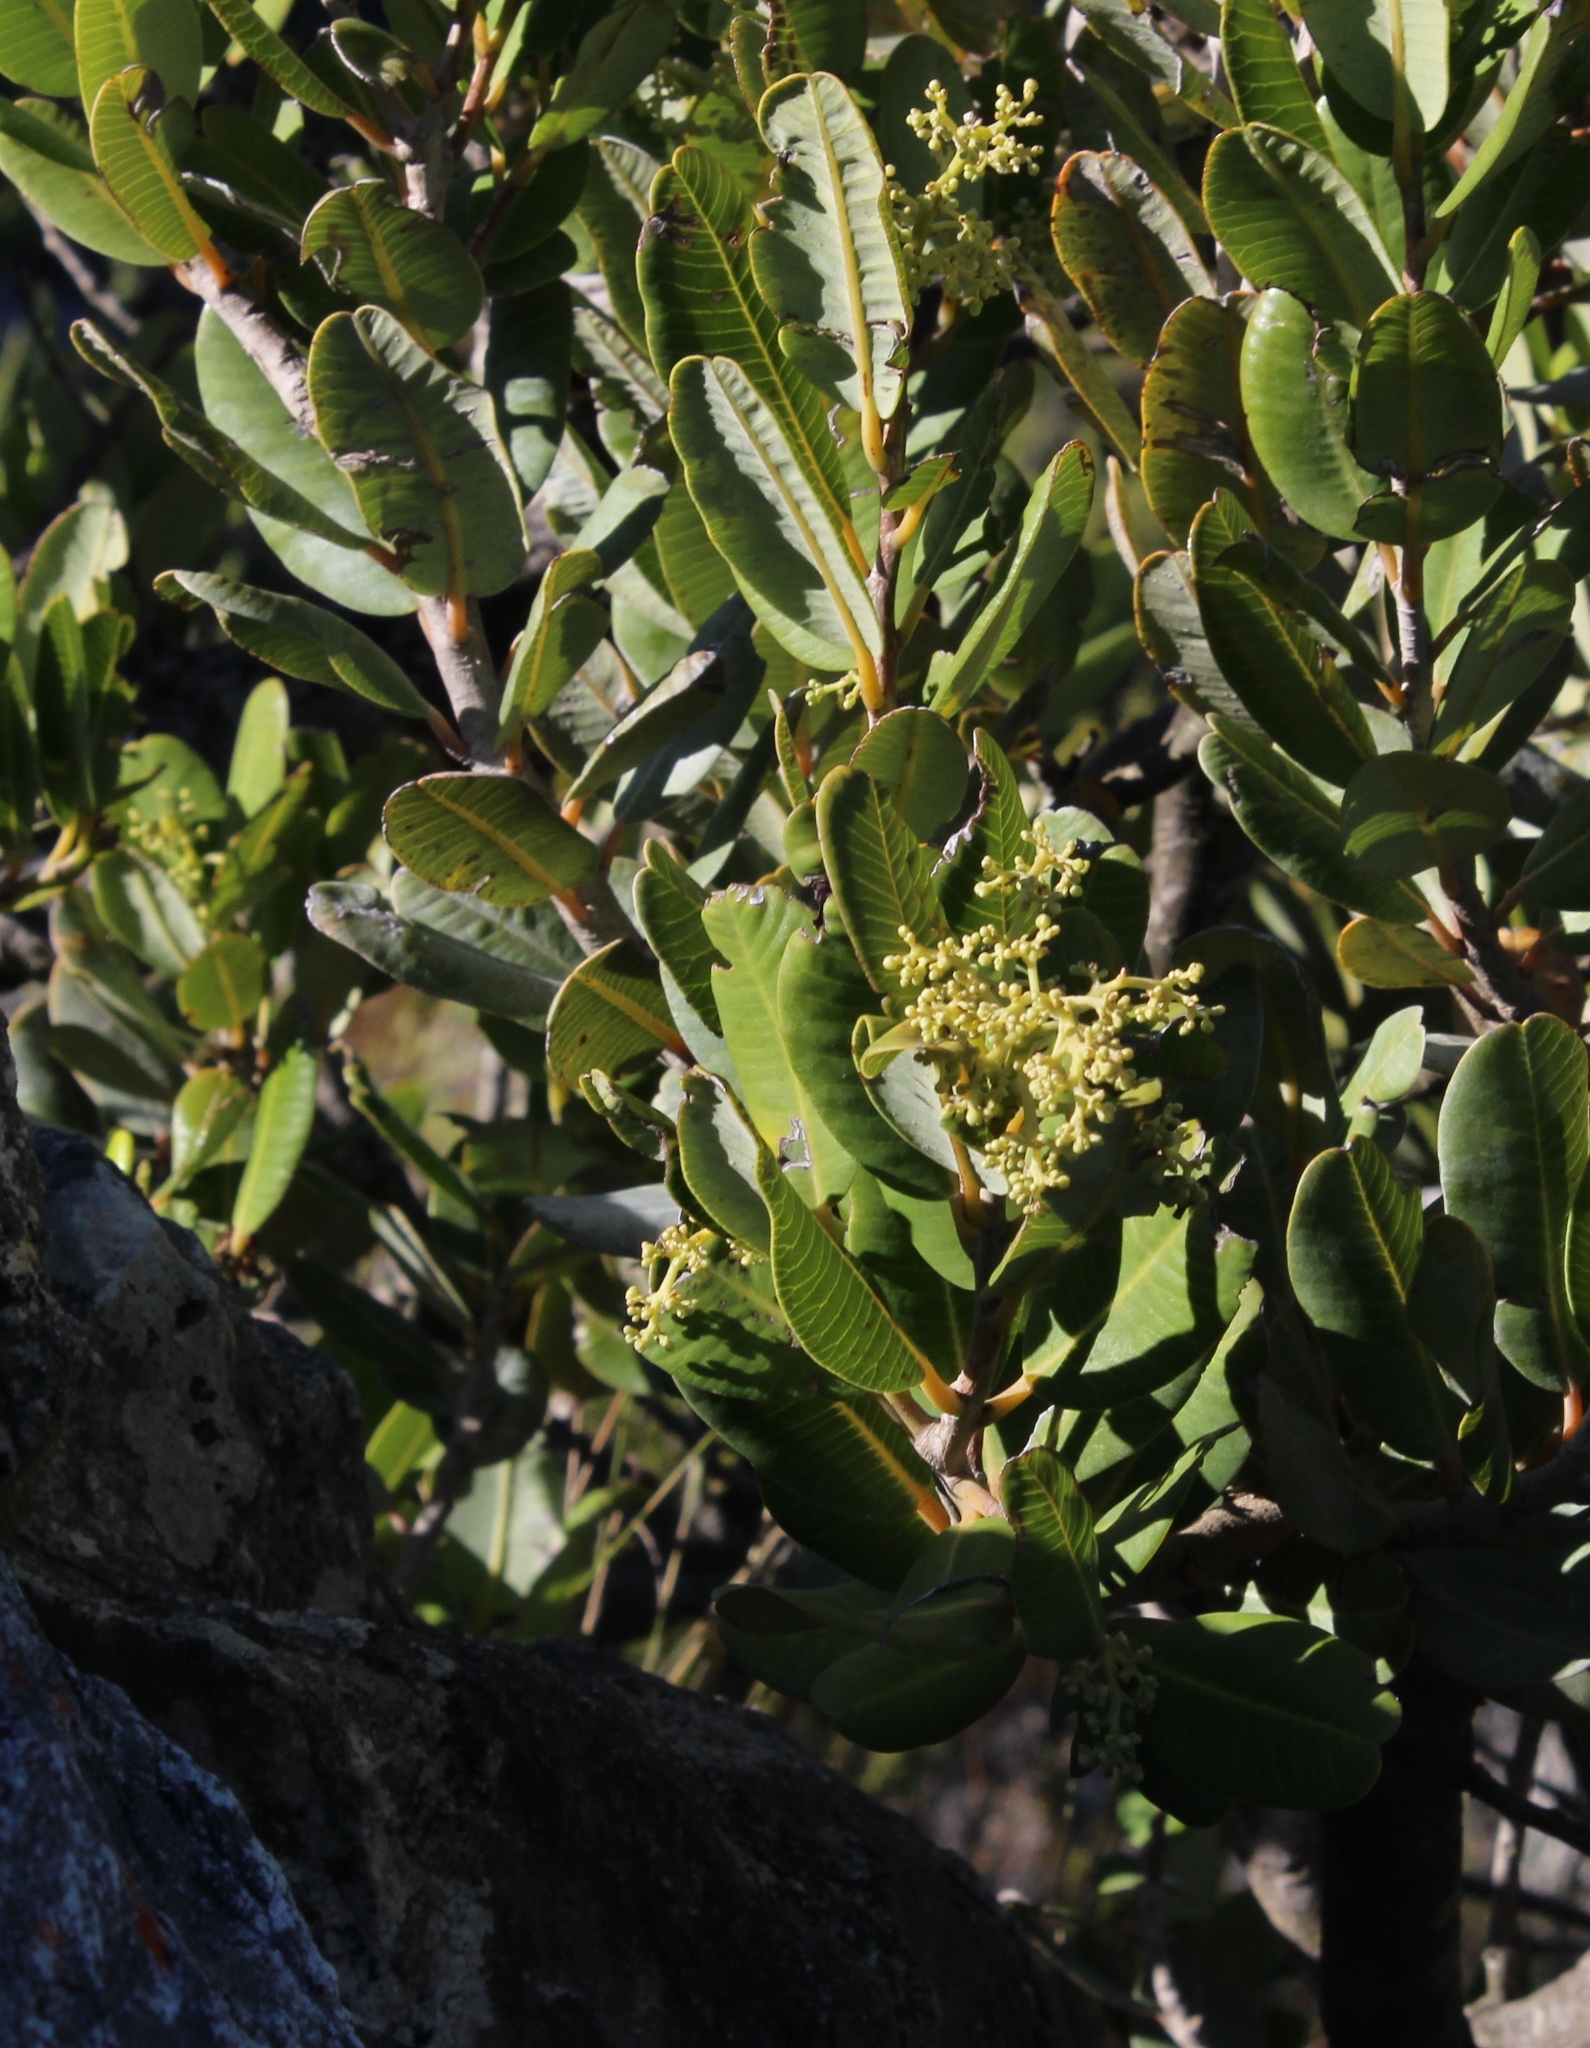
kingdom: Plantae
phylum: Tracheophyta
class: Magnoliopsida
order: Sapindales
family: Anacardiaceae
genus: Heeria
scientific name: Heeria argentea
